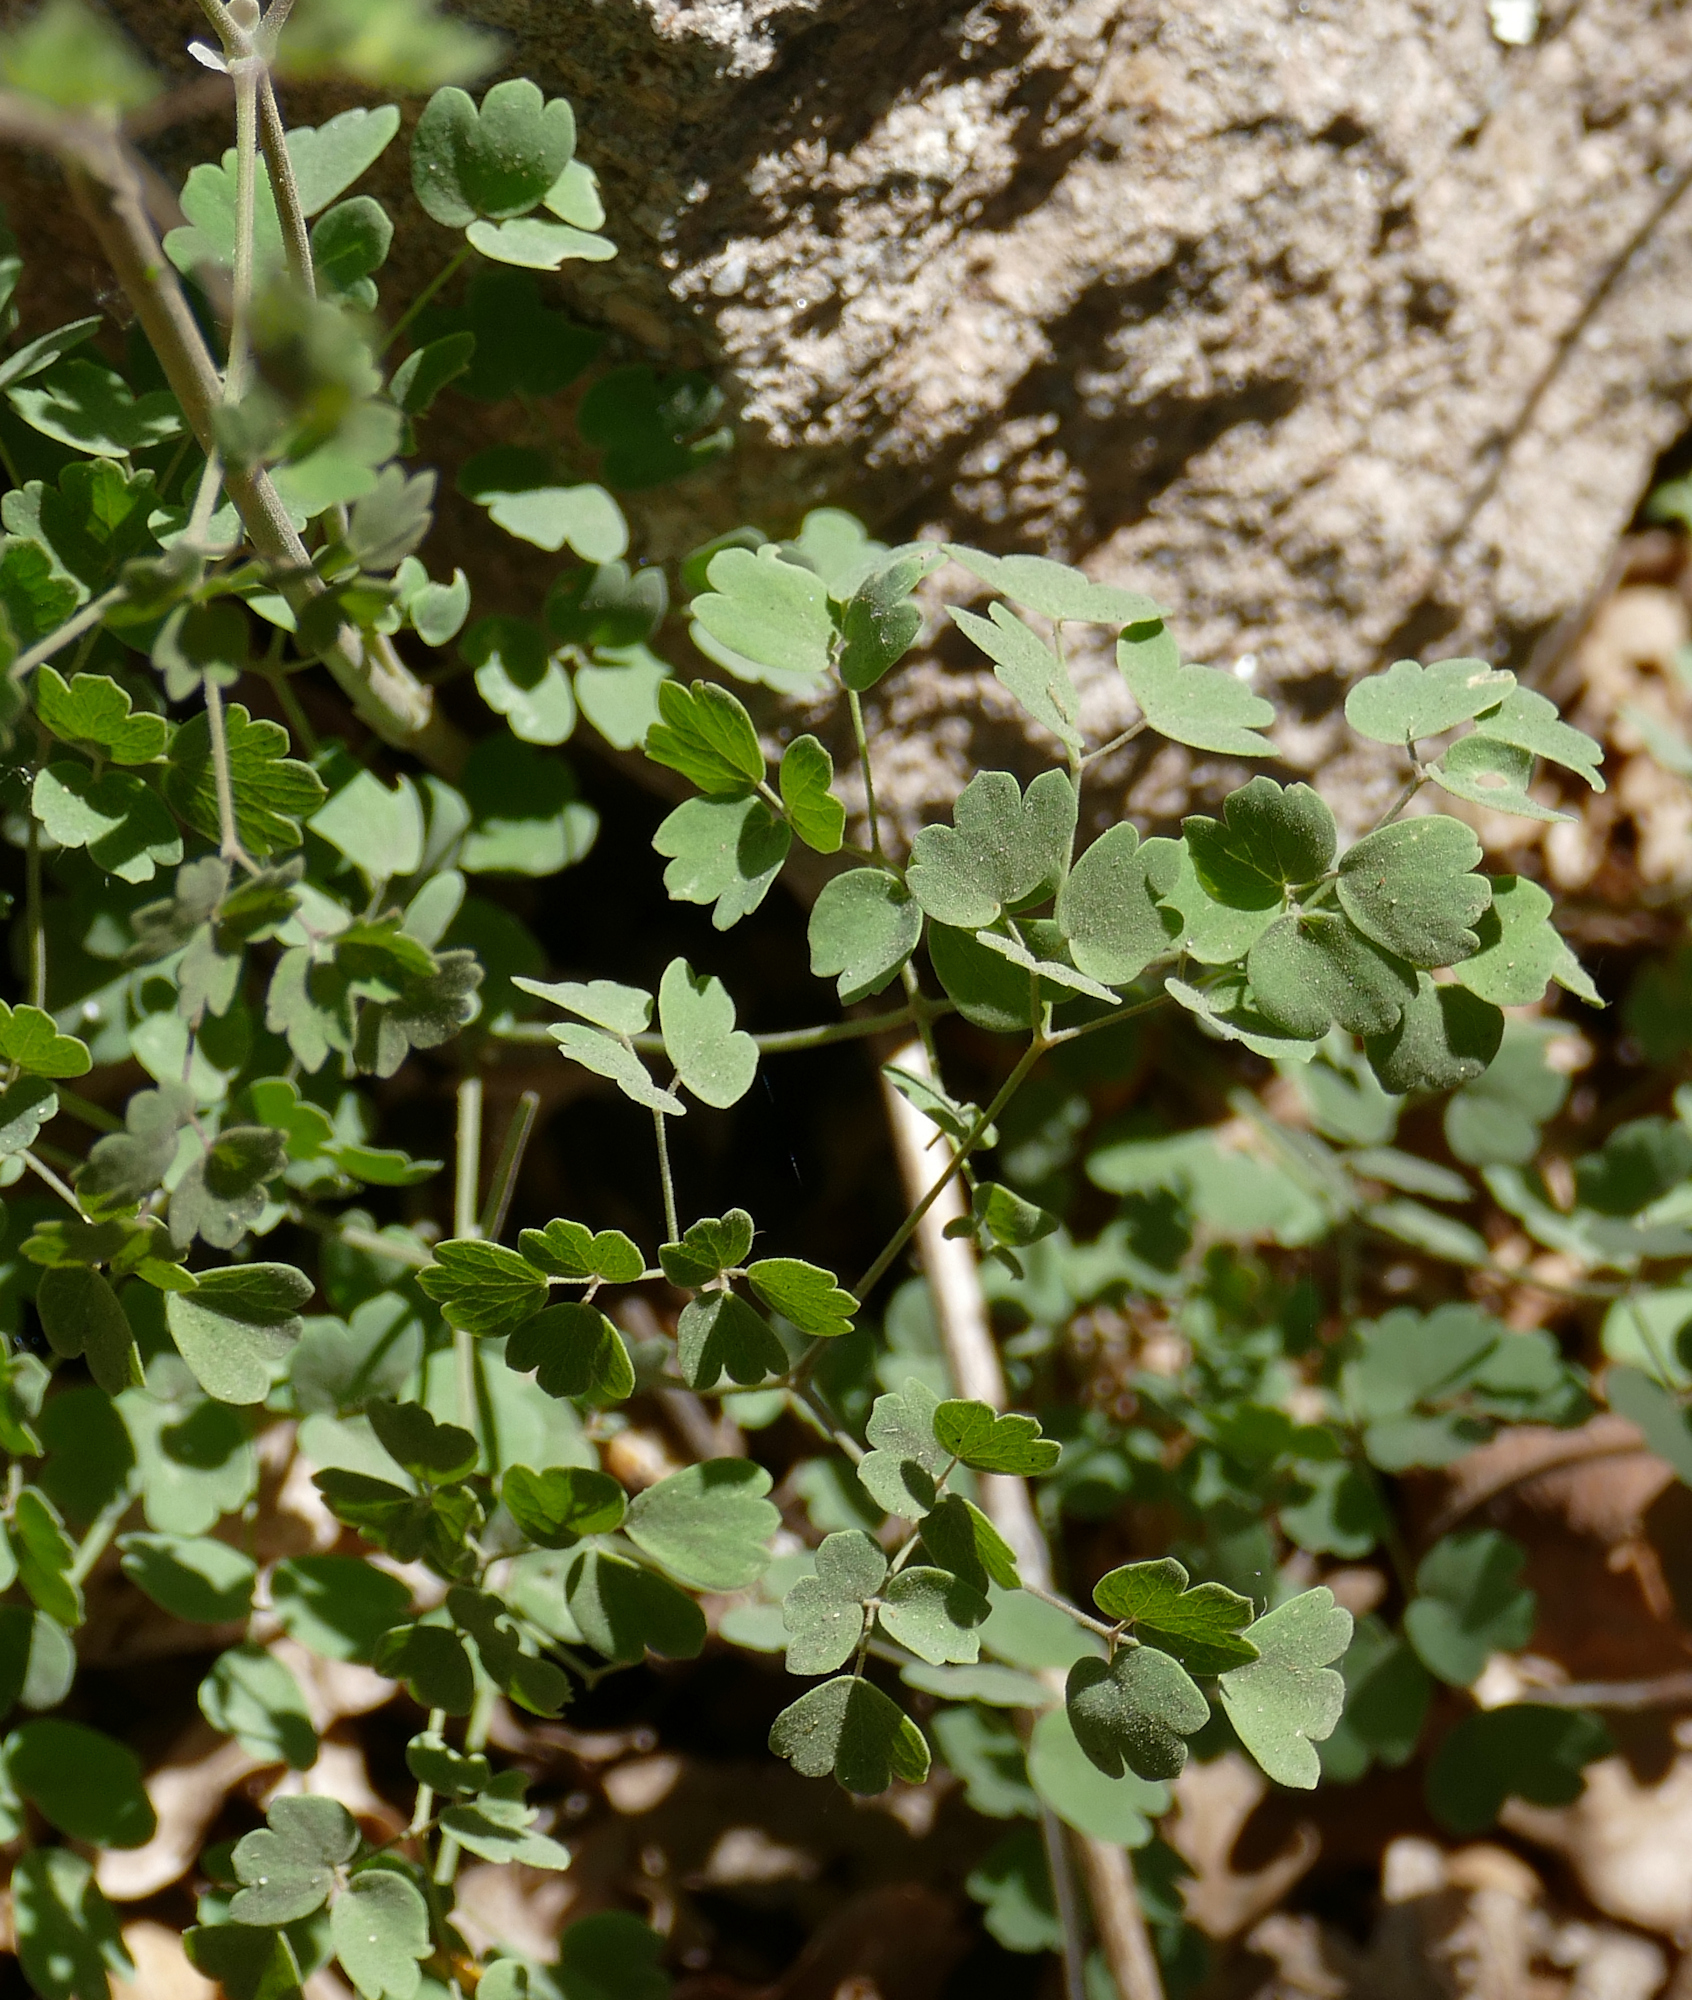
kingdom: Plantae
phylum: Tracheophyta
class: Magnoliopsida
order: Ranunculales
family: Ranunculaceae
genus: Thalictrum
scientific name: Thalictrum fendleri
